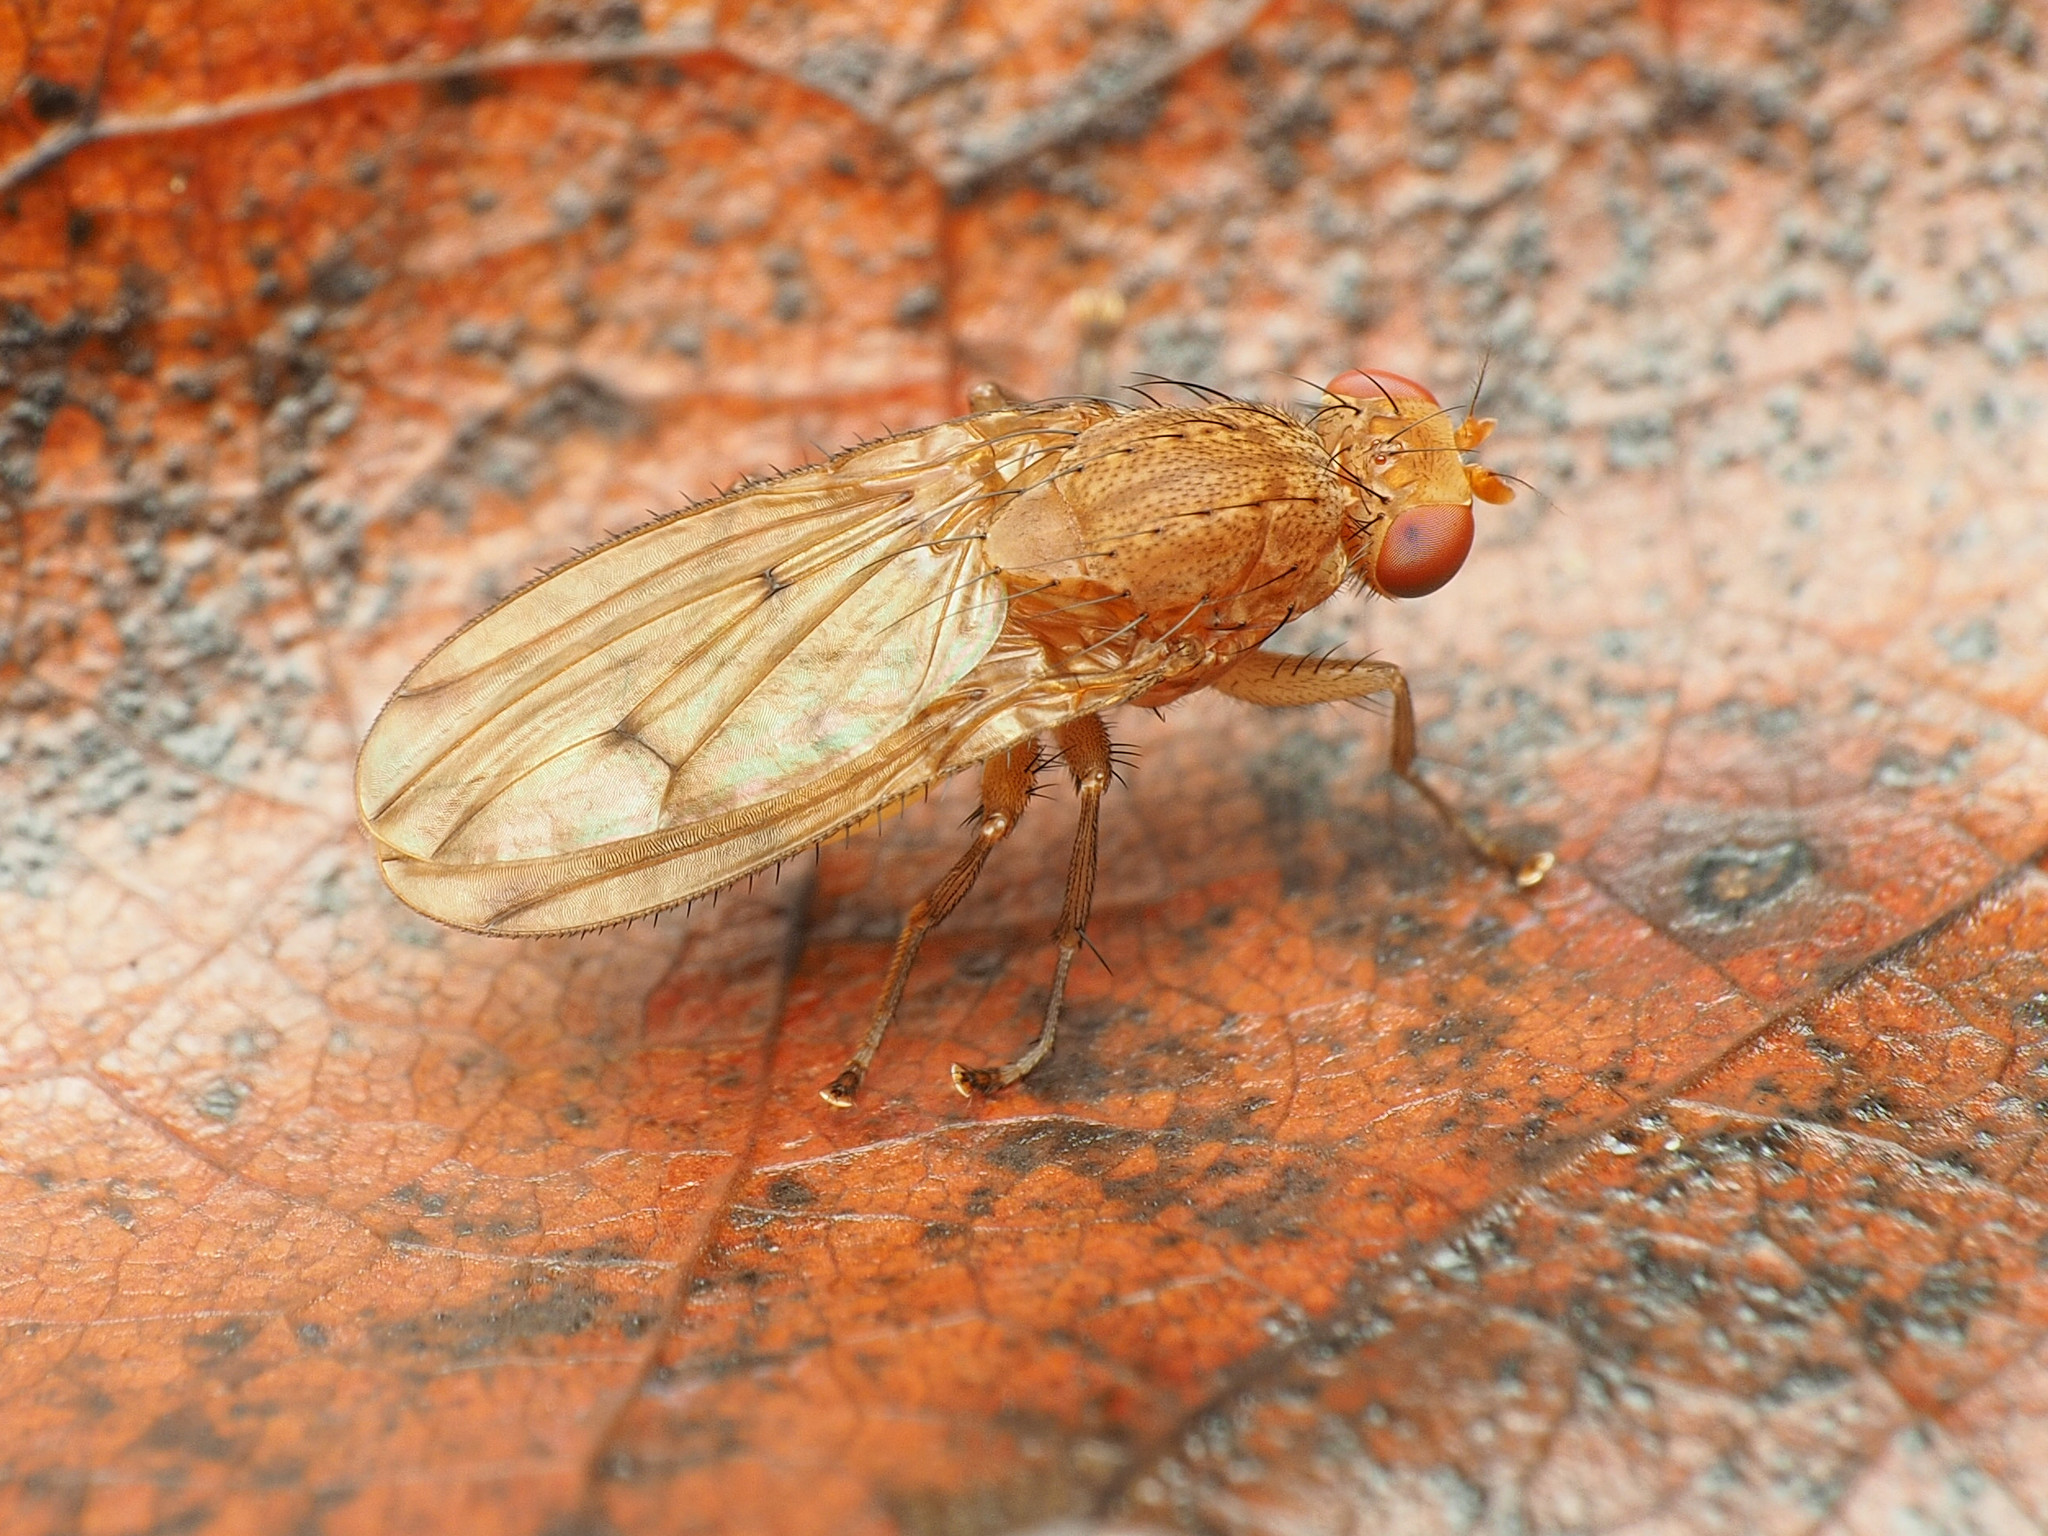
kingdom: Animalia
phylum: Arthropoda
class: Insecta
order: Diptera
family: Heleomyzidae
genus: Suillia
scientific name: Suillia plumata
